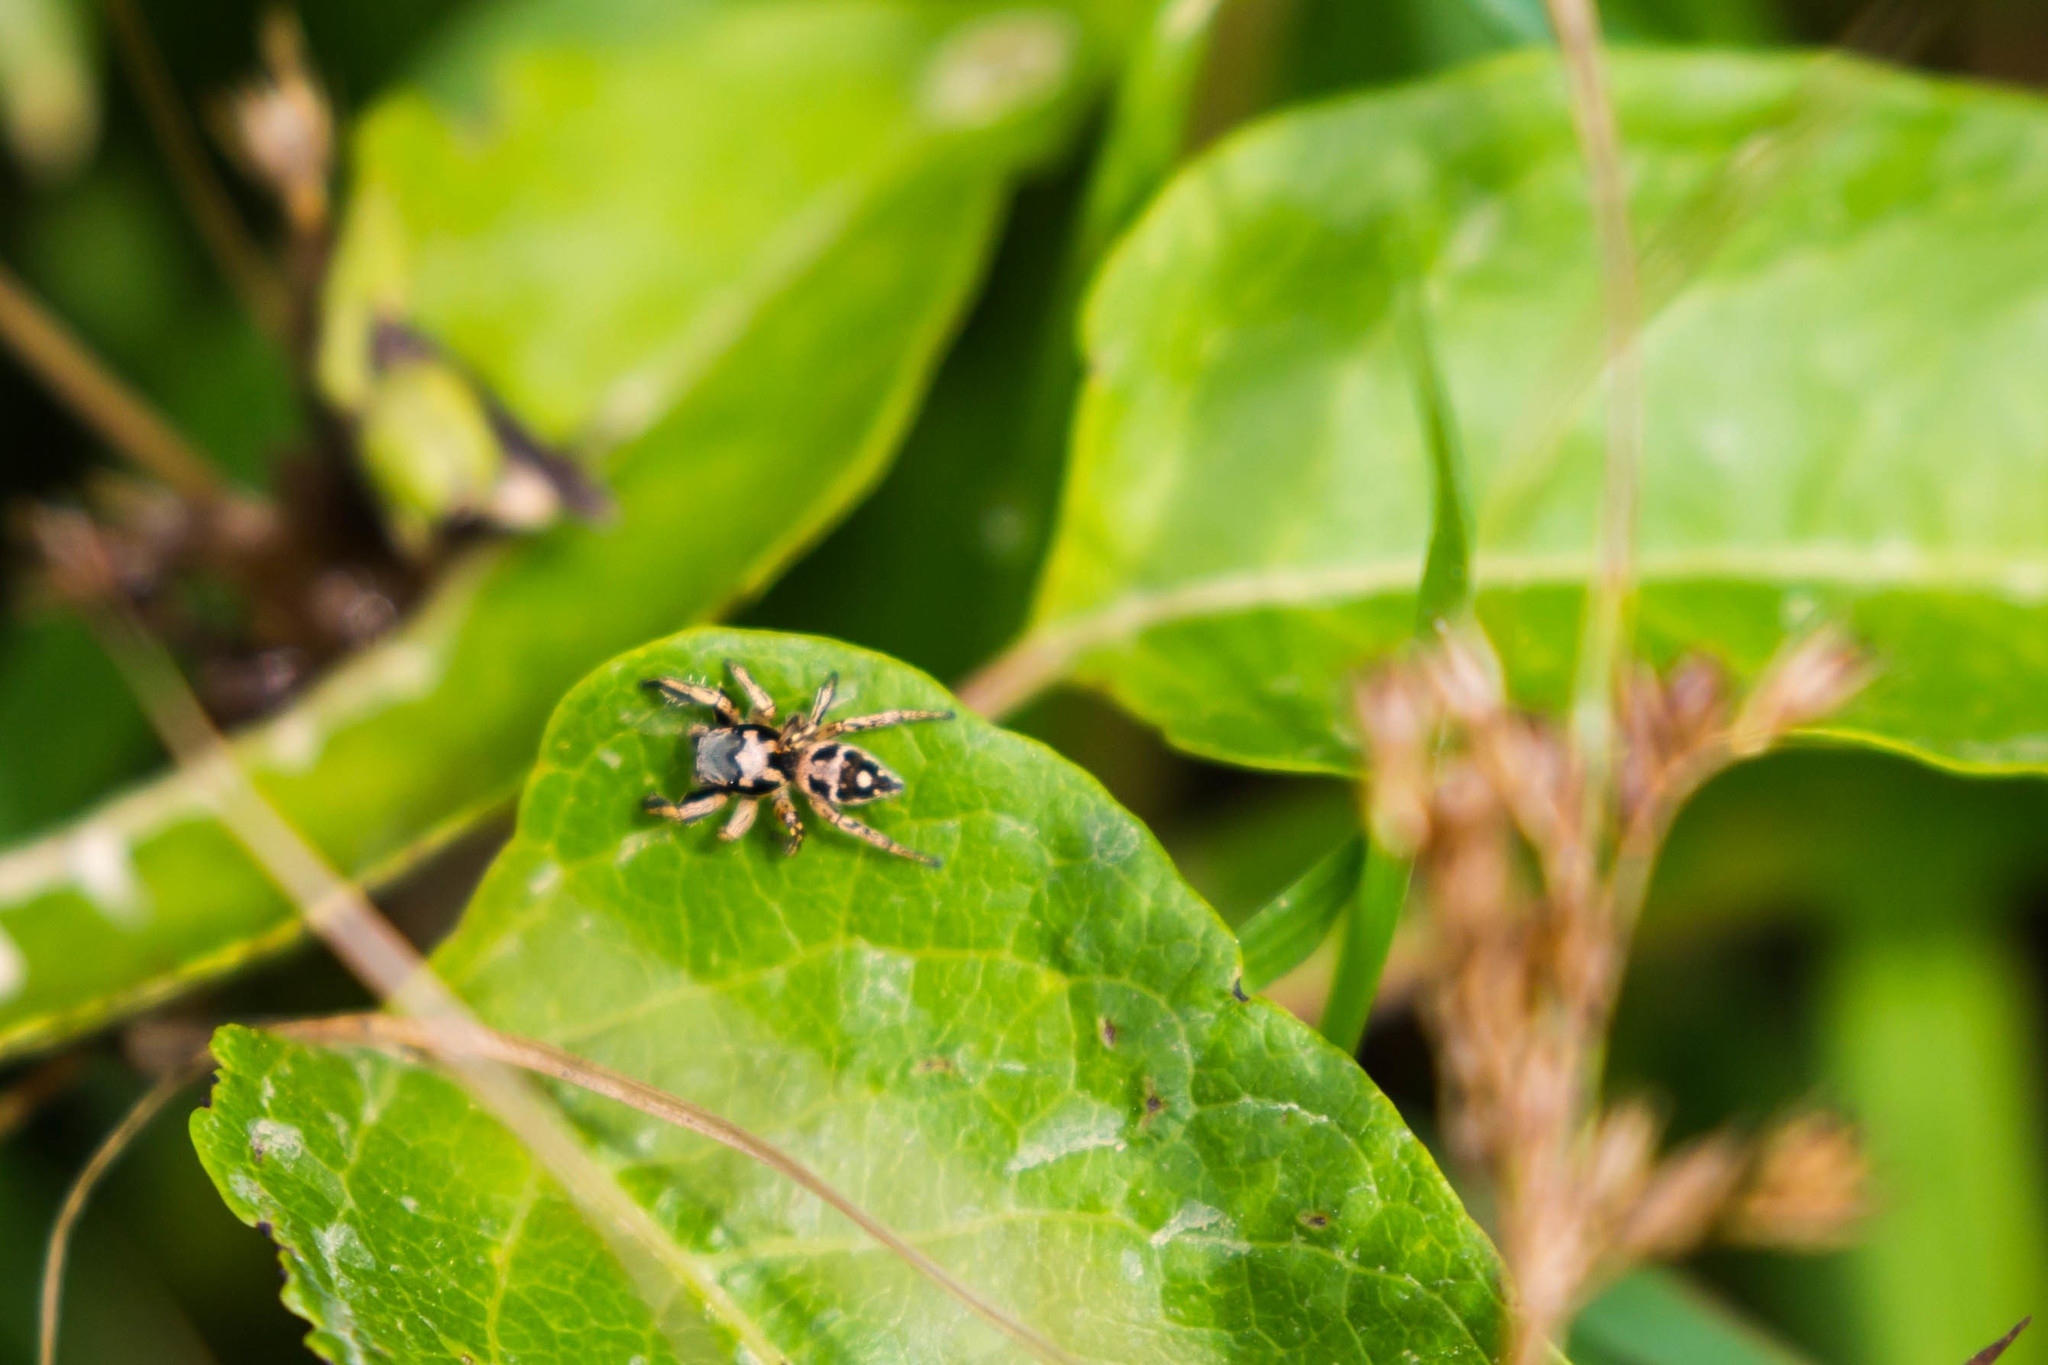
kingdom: Animalia
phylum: Arthropoda
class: Arachnida
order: Araneae
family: Salticidae
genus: Habronattus
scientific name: Habronattus coecatus
